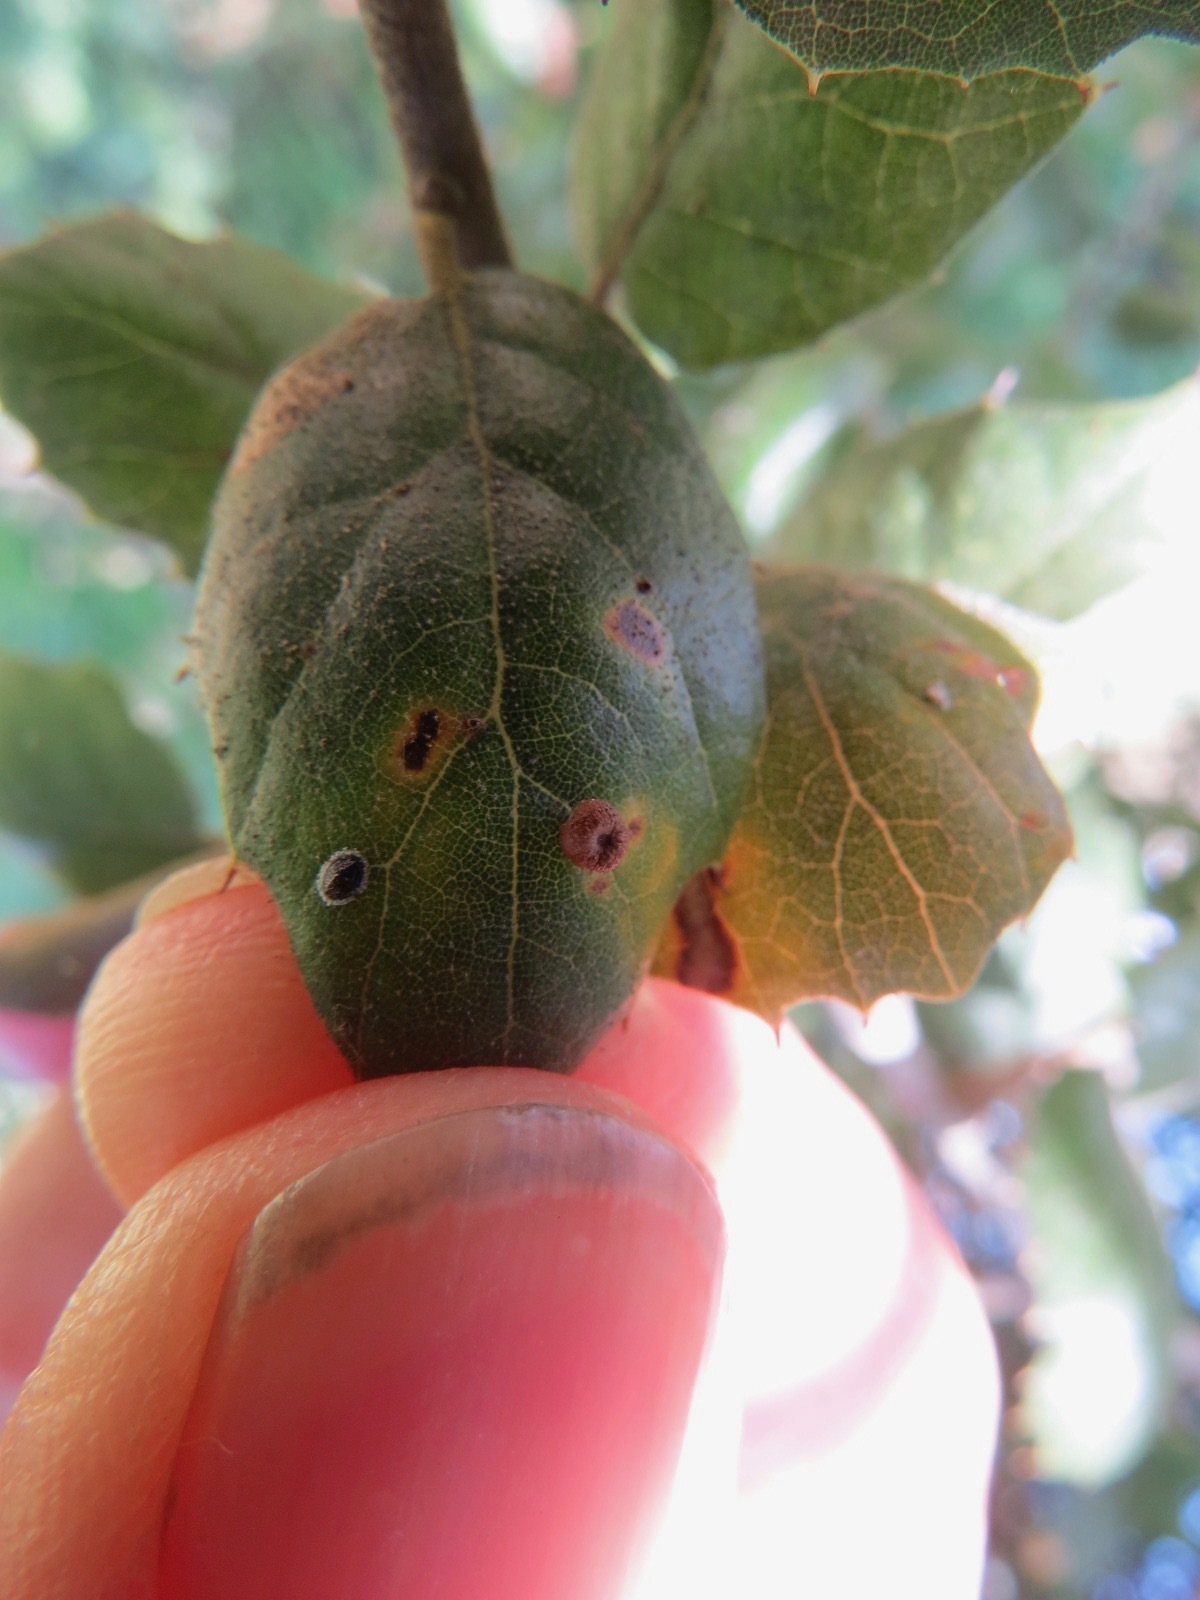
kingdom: Animalia
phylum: Arthropoda
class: Insecta
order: Hymenoptera
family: Cynipidae
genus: Dryocosmus
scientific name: Dryocosmus
